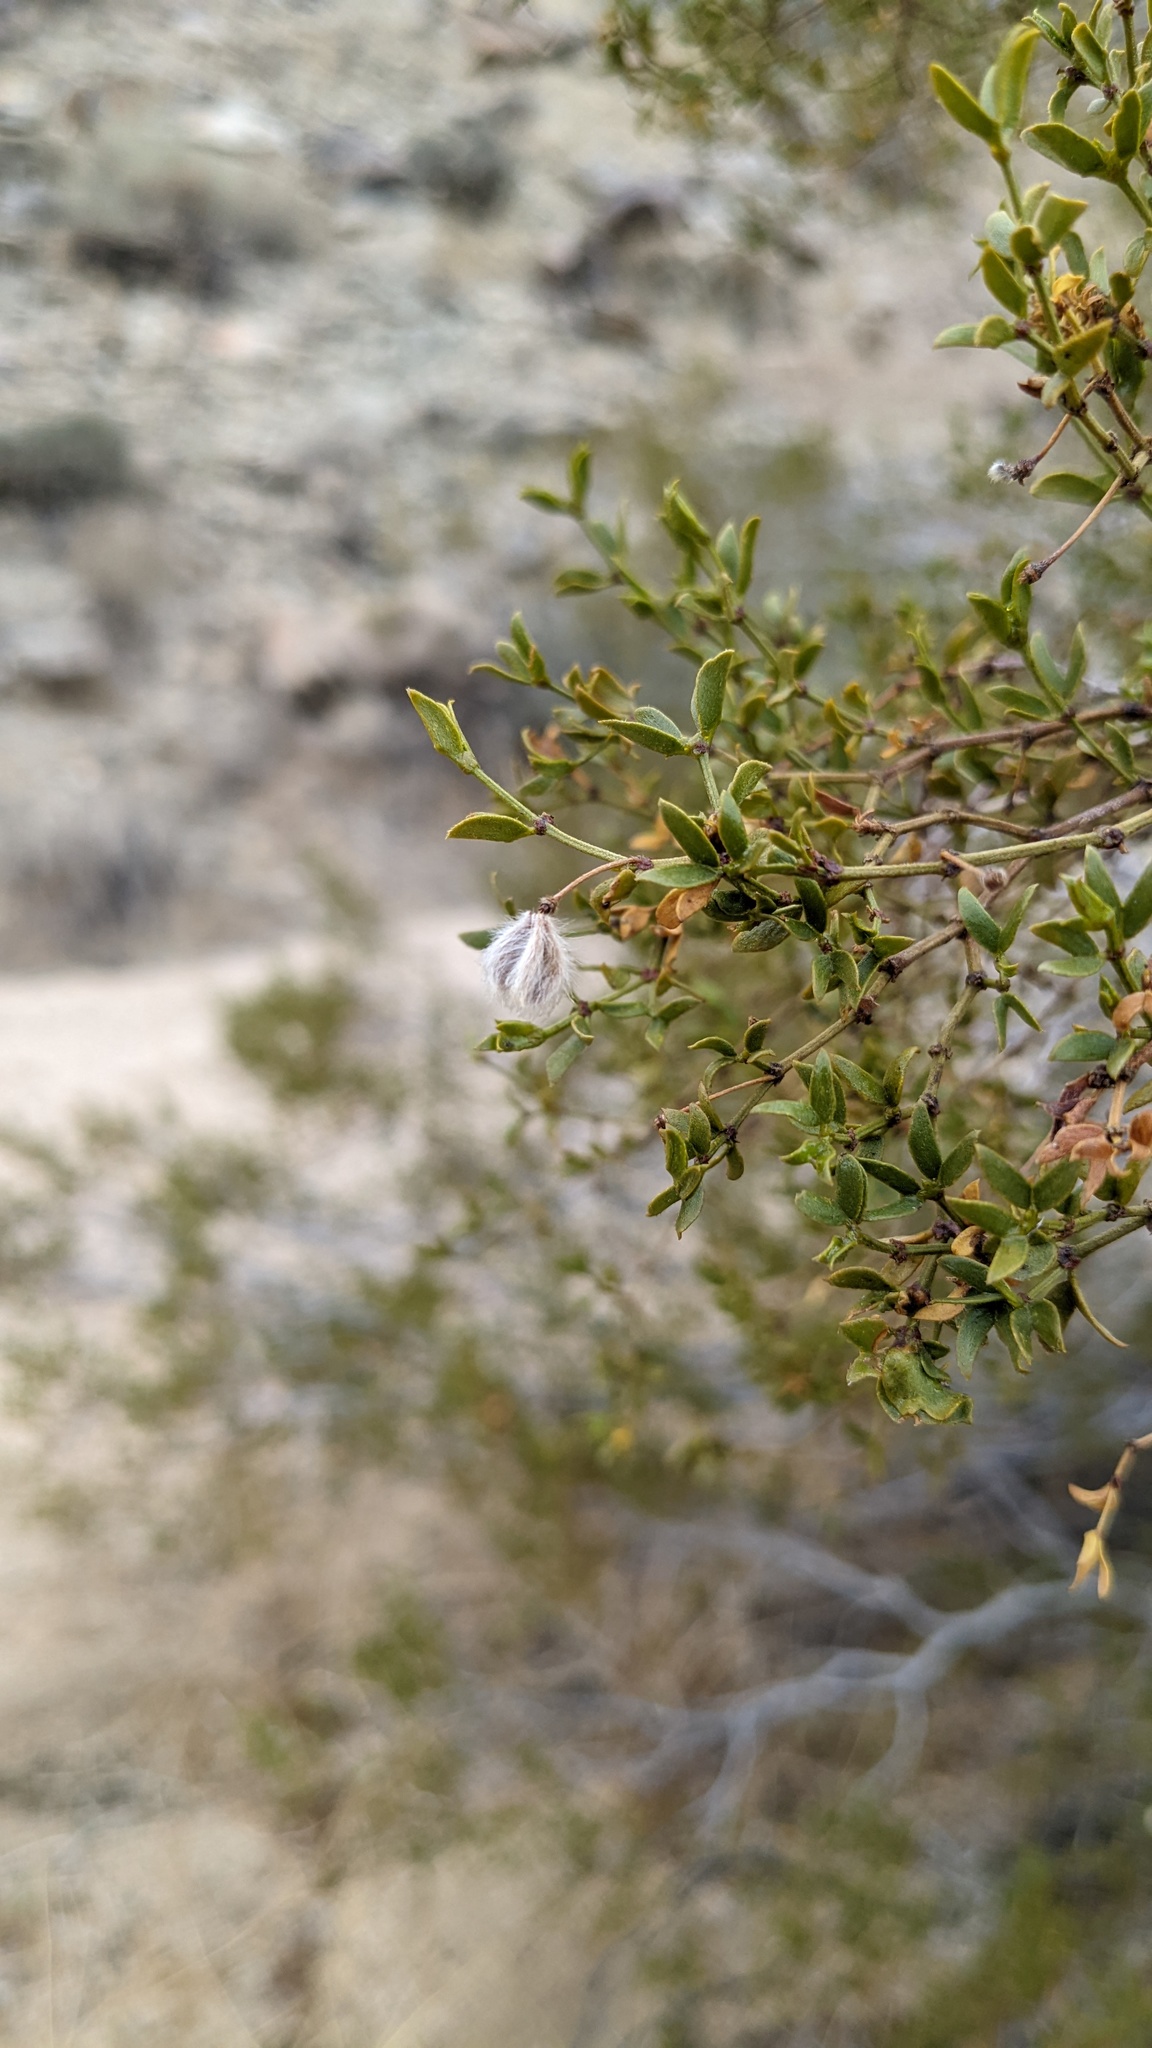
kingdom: Plantae
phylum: Tracheophyta
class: Magnoliopsida
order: Zygophyllales
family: Zygophyllaceae
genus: Larrea
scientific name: Larrea tridentata
